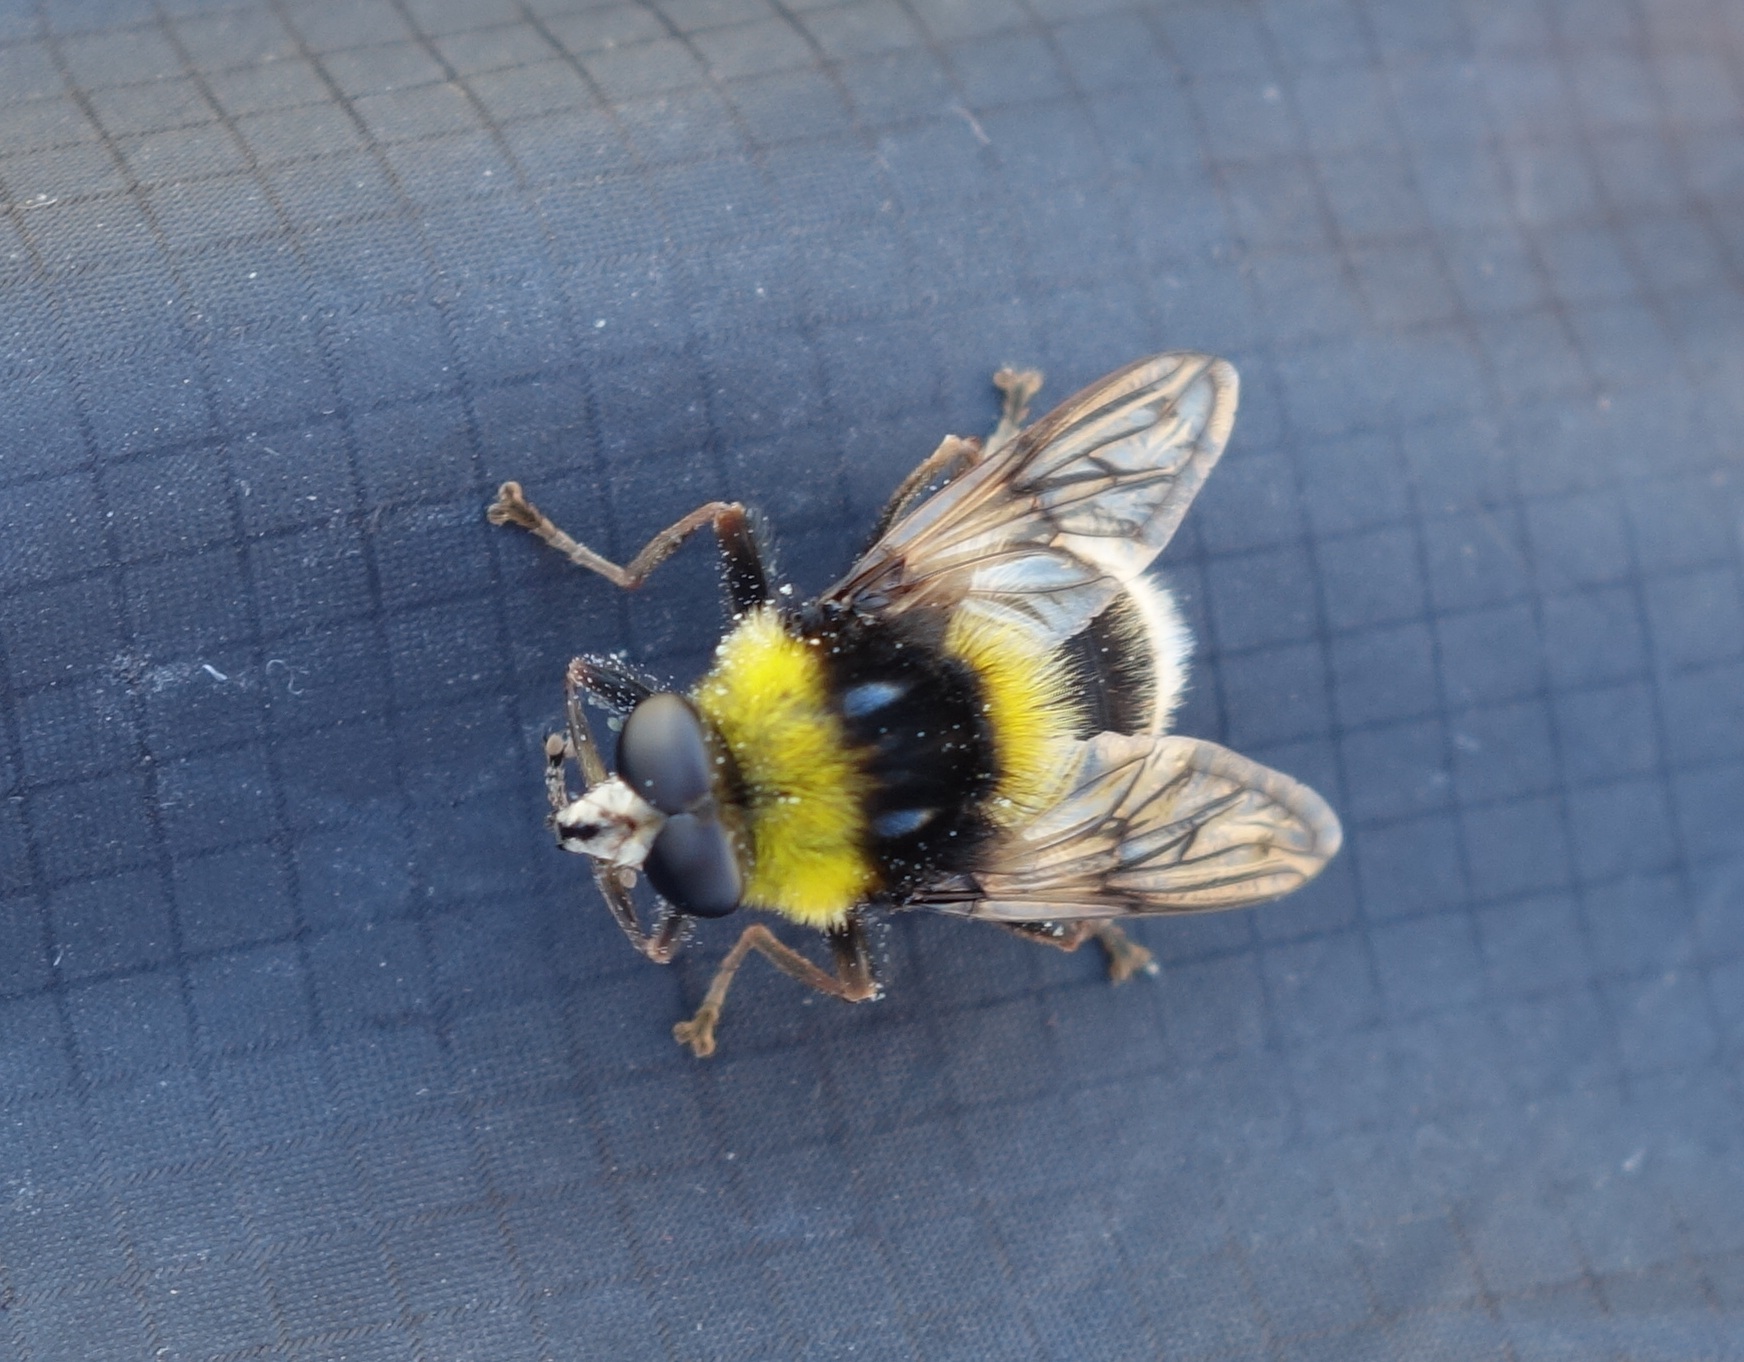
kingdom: Animalia
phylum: Arthropoda
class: Insecta
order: Diptera
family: Syrphidae
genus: Sericomyia
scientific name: Sericomyia bombiformis
